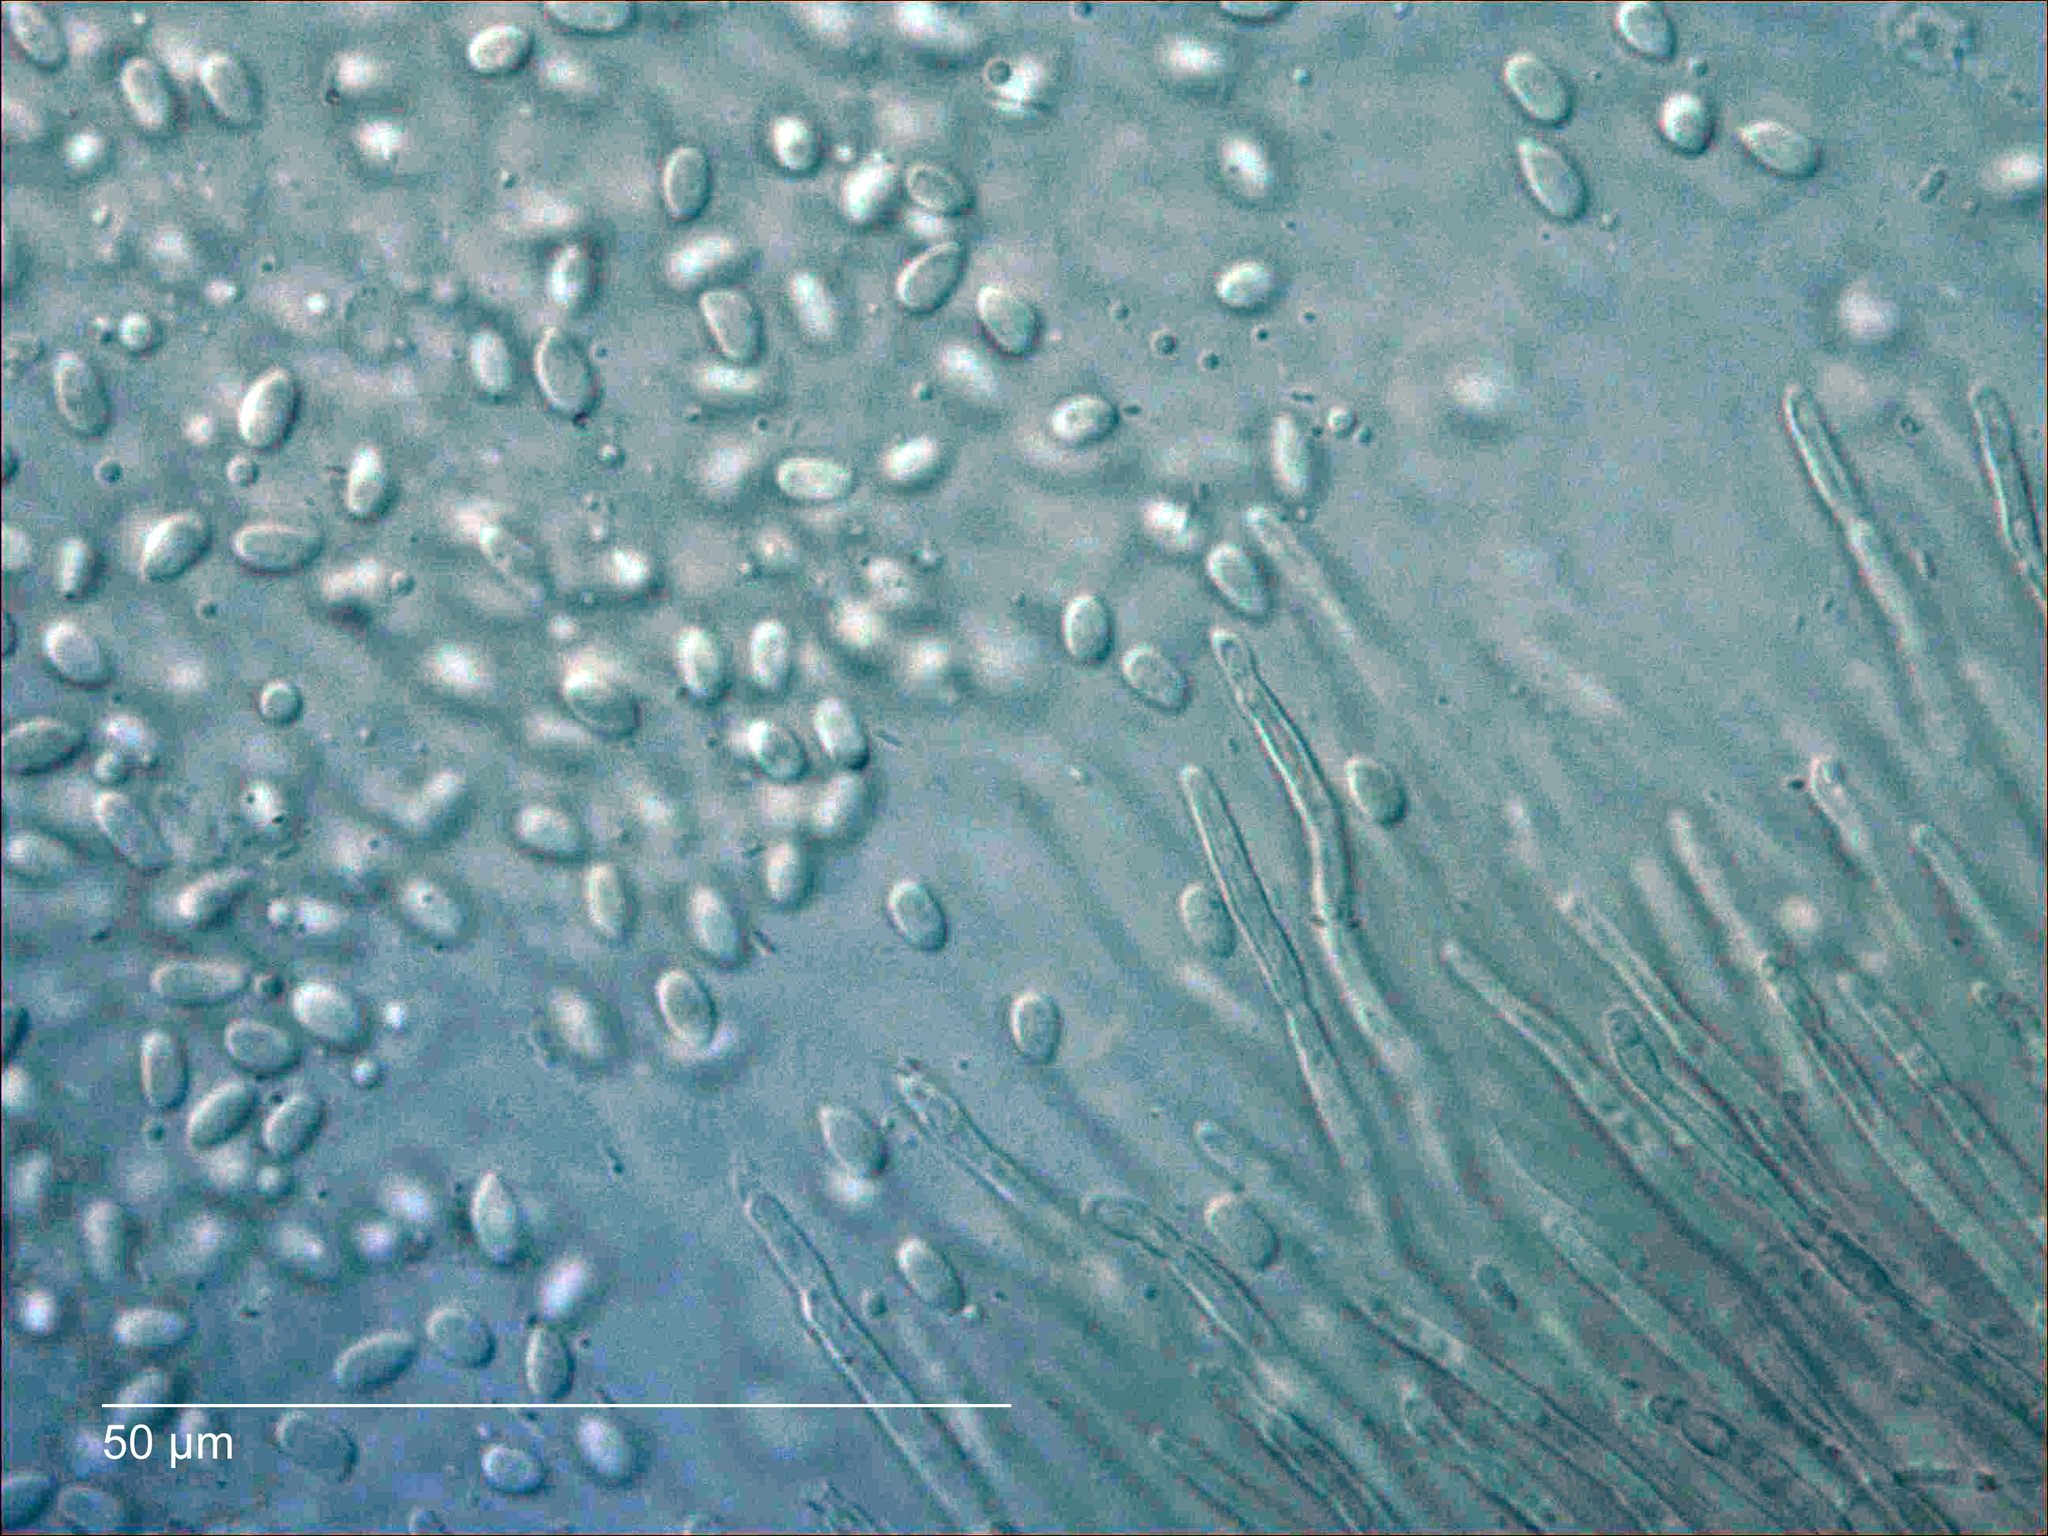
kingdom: Fungi
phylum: Basidiomycota
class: Atractiellomycetes
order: Atractiellales
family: Phleogenaceae
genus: Helicogloea
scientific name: Helicogloea compressa
